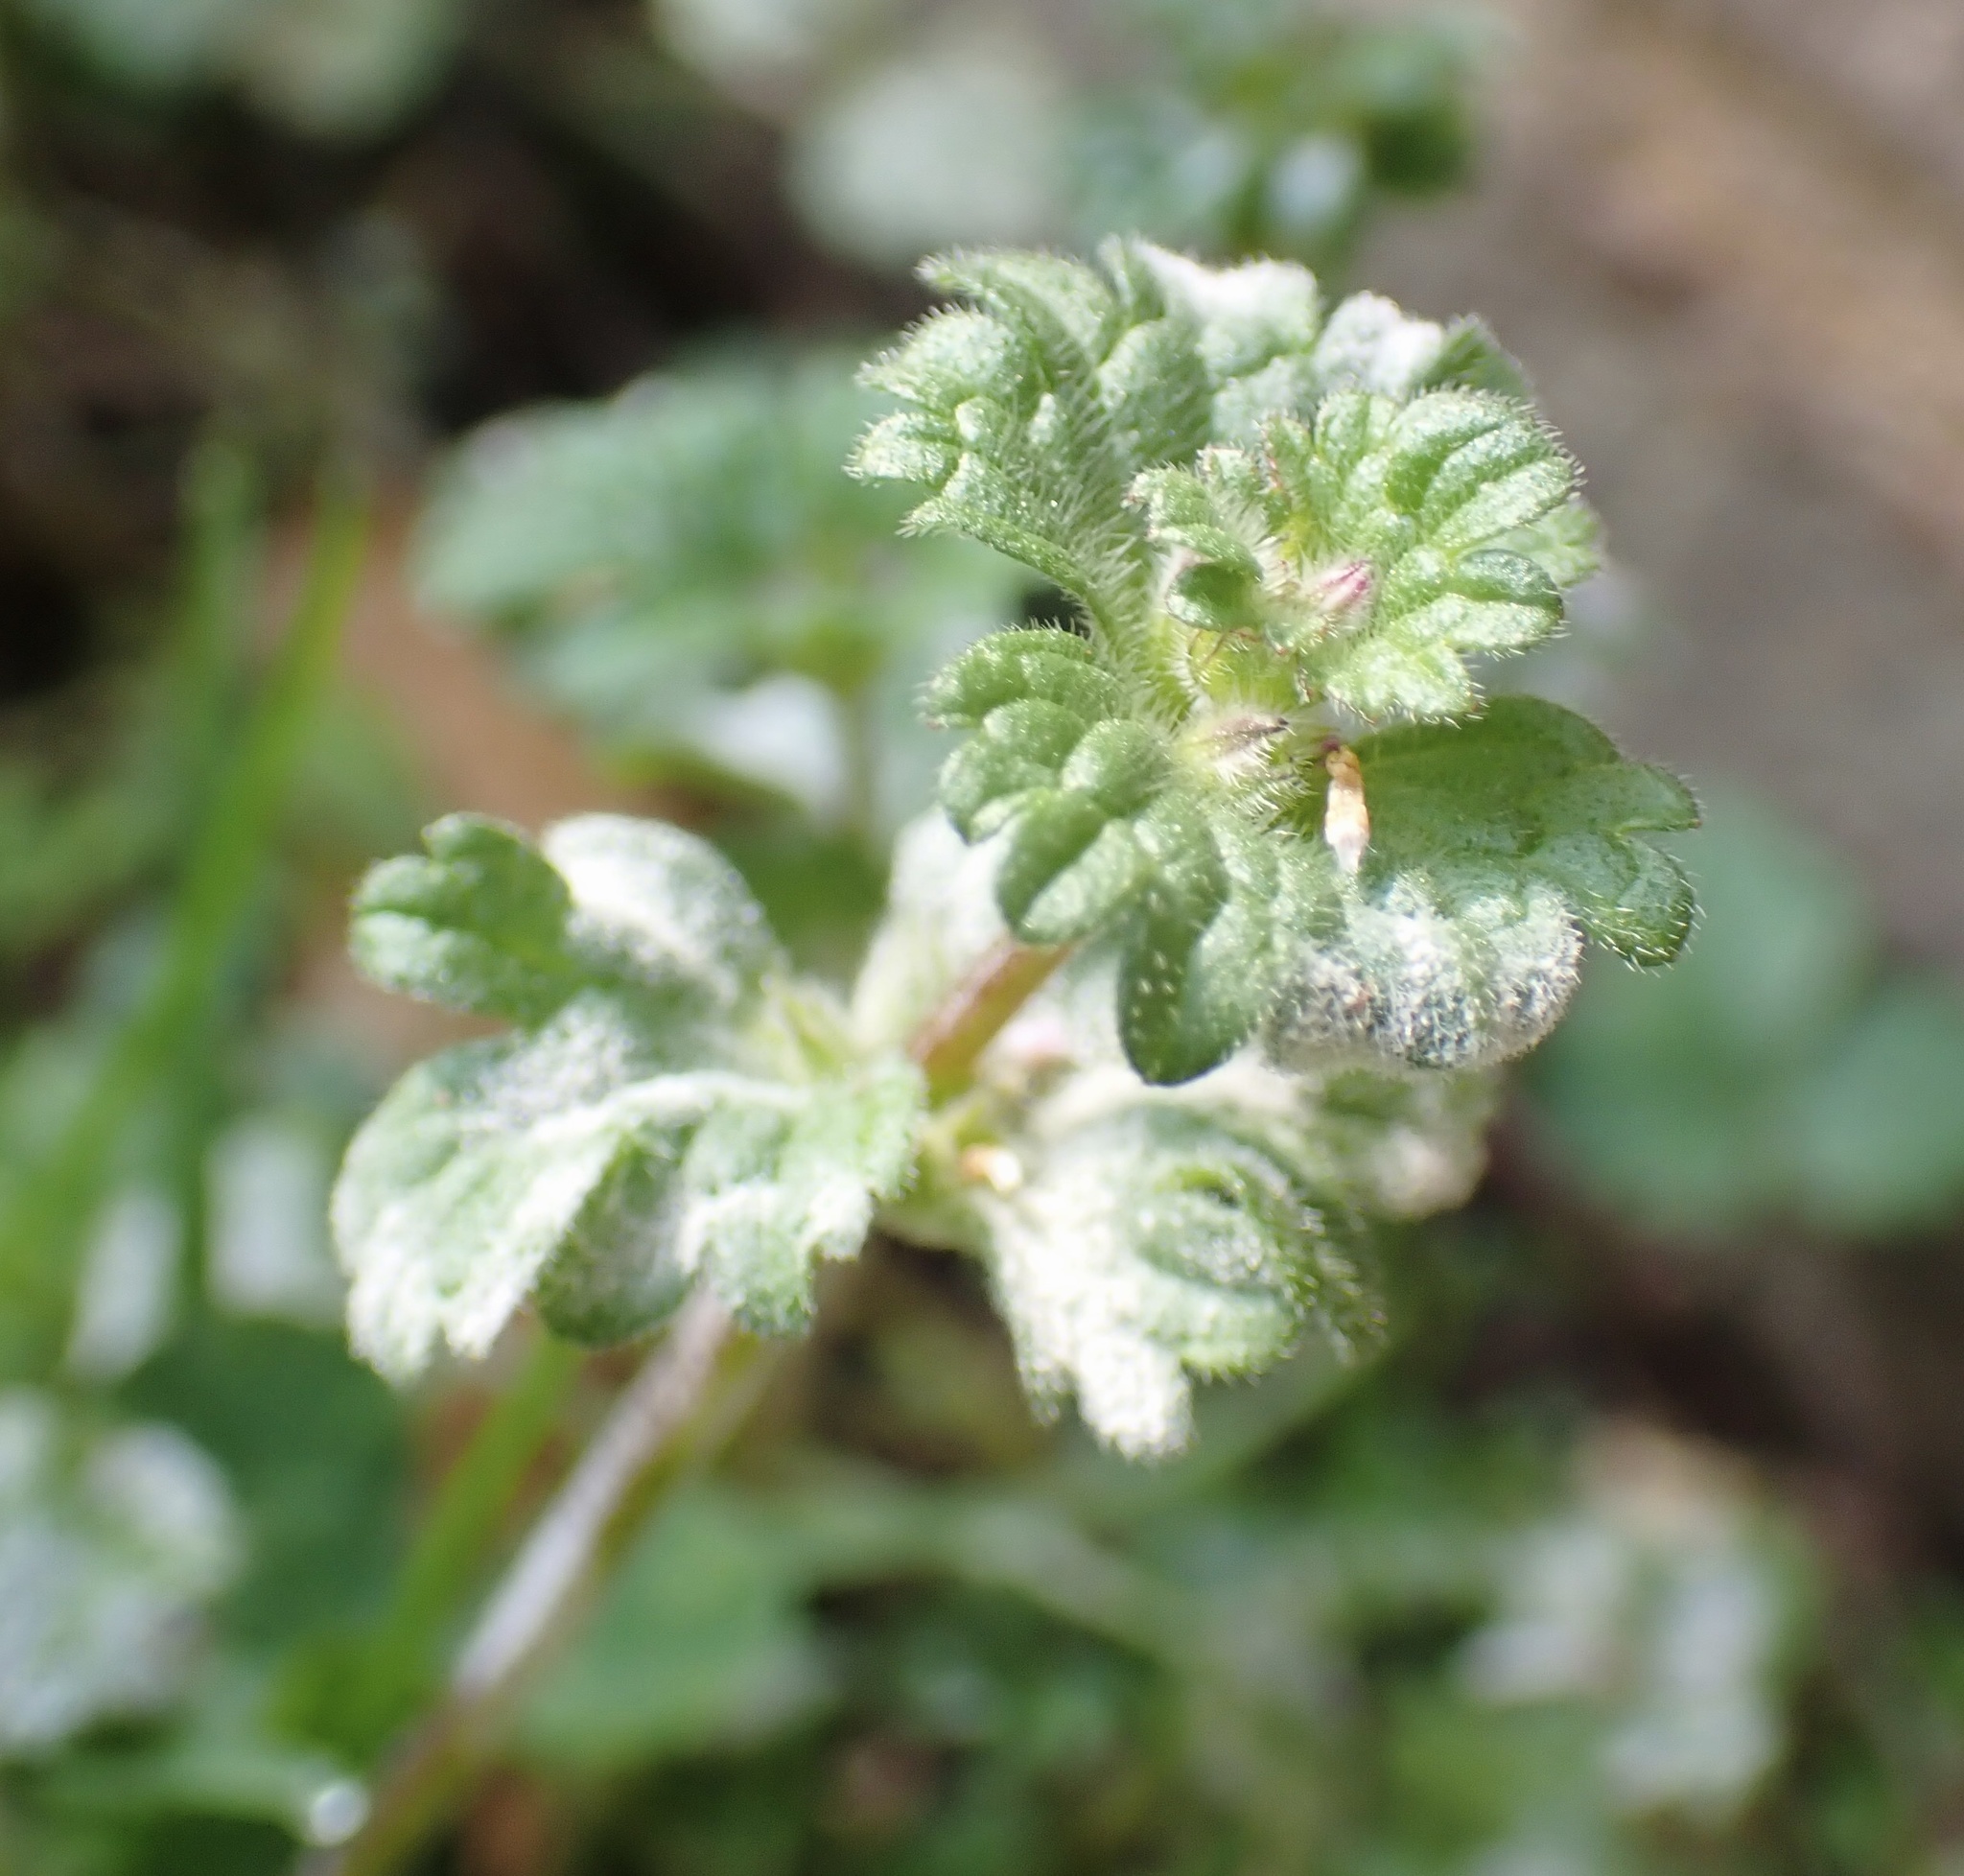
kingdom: Plantae
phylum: Tracheophyta
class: Magnoliopsida
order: Lamiales
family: Lamiaceae
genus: Lamium
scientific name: Lamium amplexicaule
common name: Henbit dead-nettle
